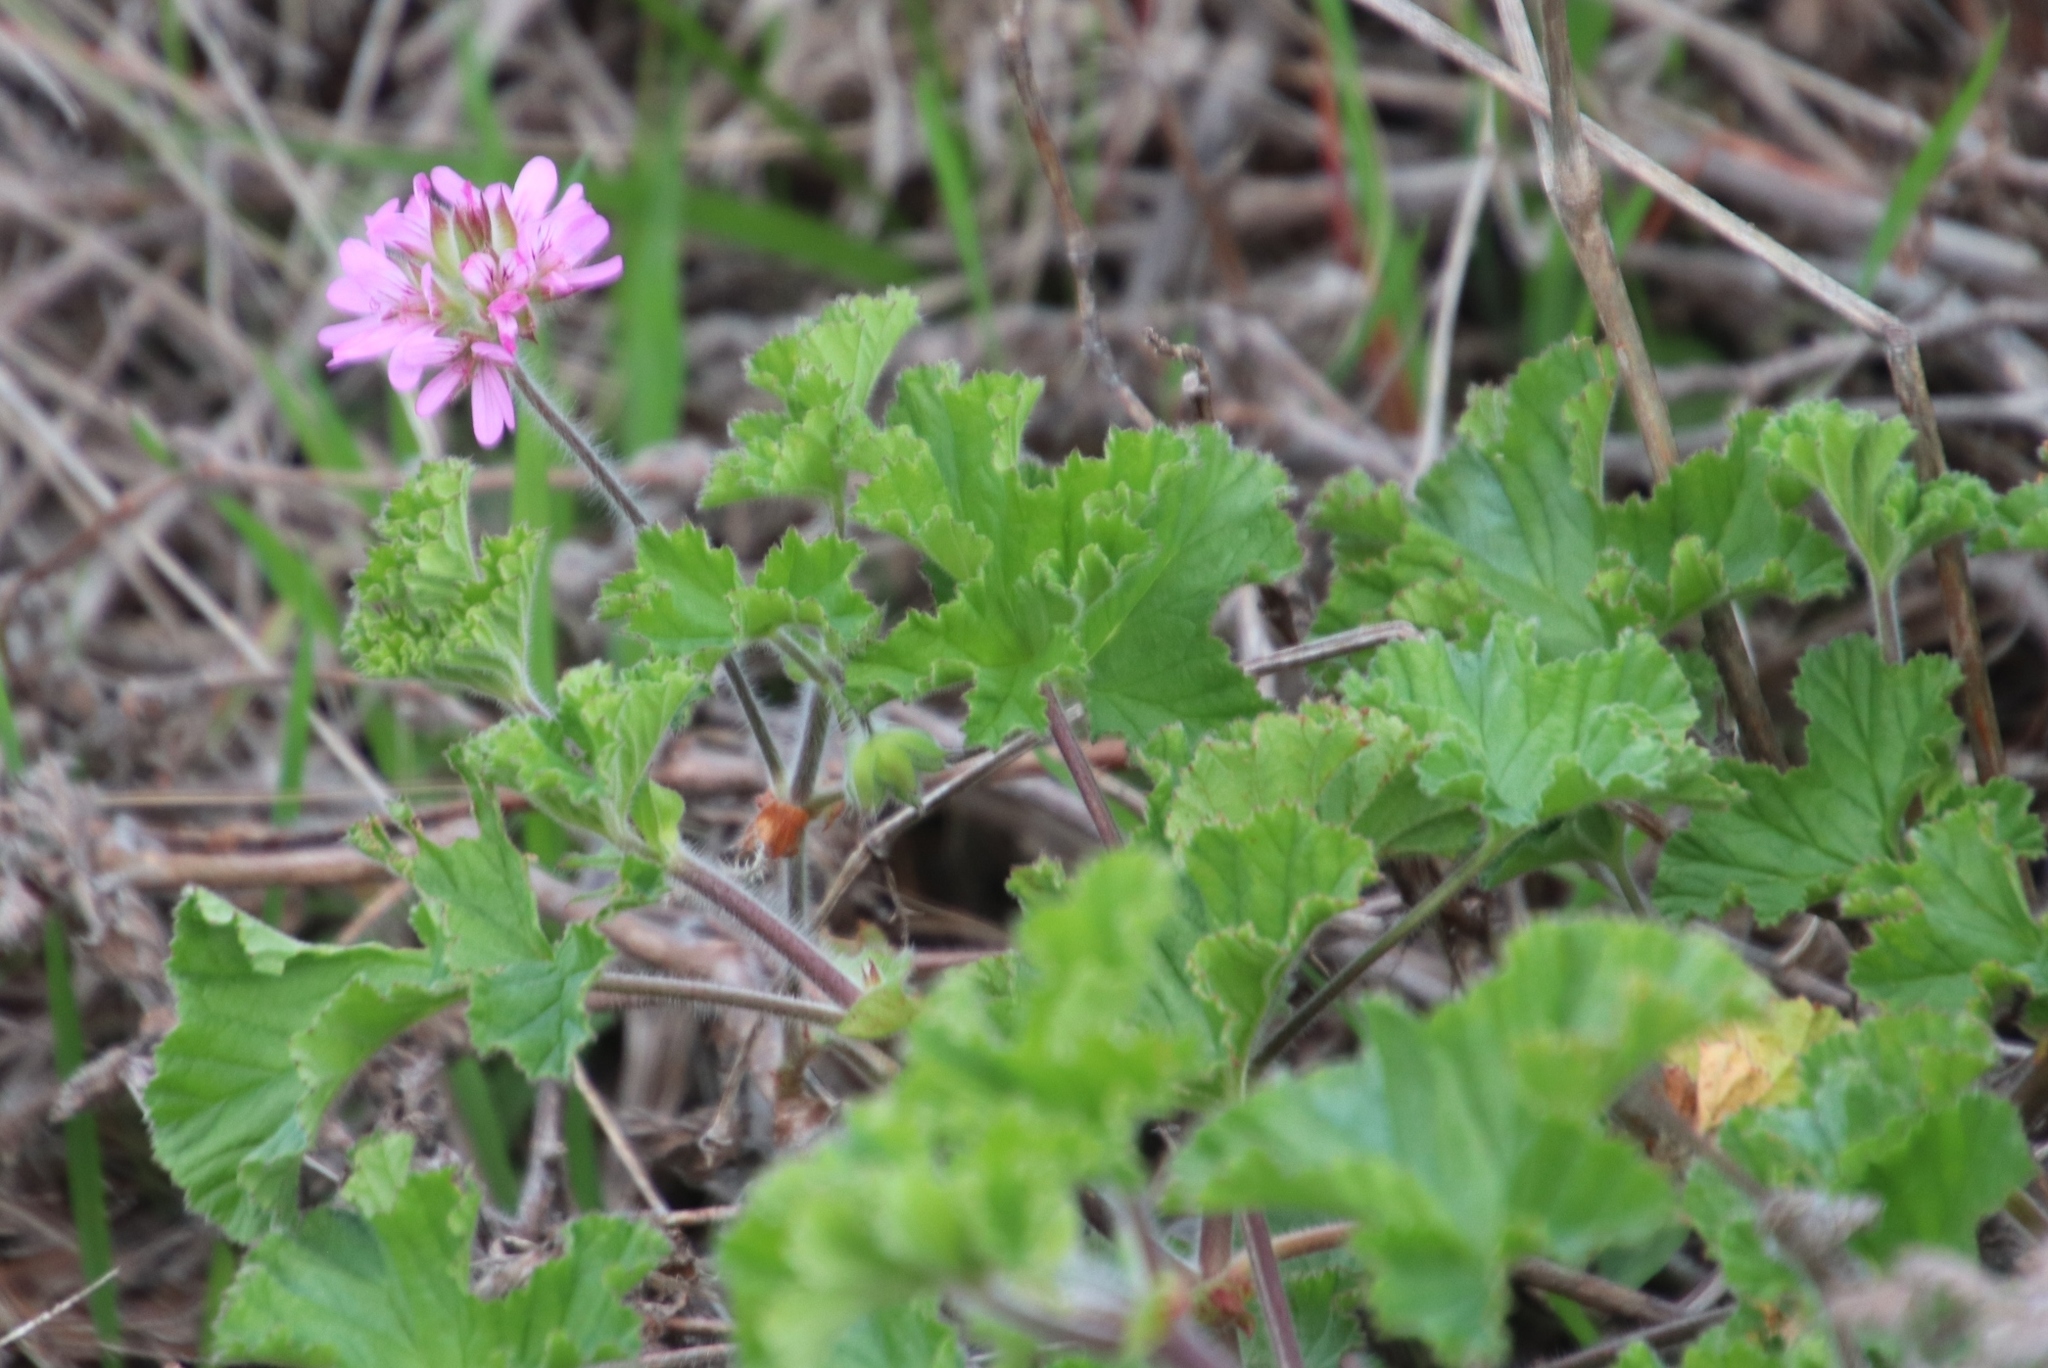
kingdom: Plantae
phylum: Tracheophyta
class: Magnoliopsida
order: Geraniales
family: Geraniaceae
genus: Pelargonium
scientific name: Pelargonium capitatum
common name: Rose scented geranium
